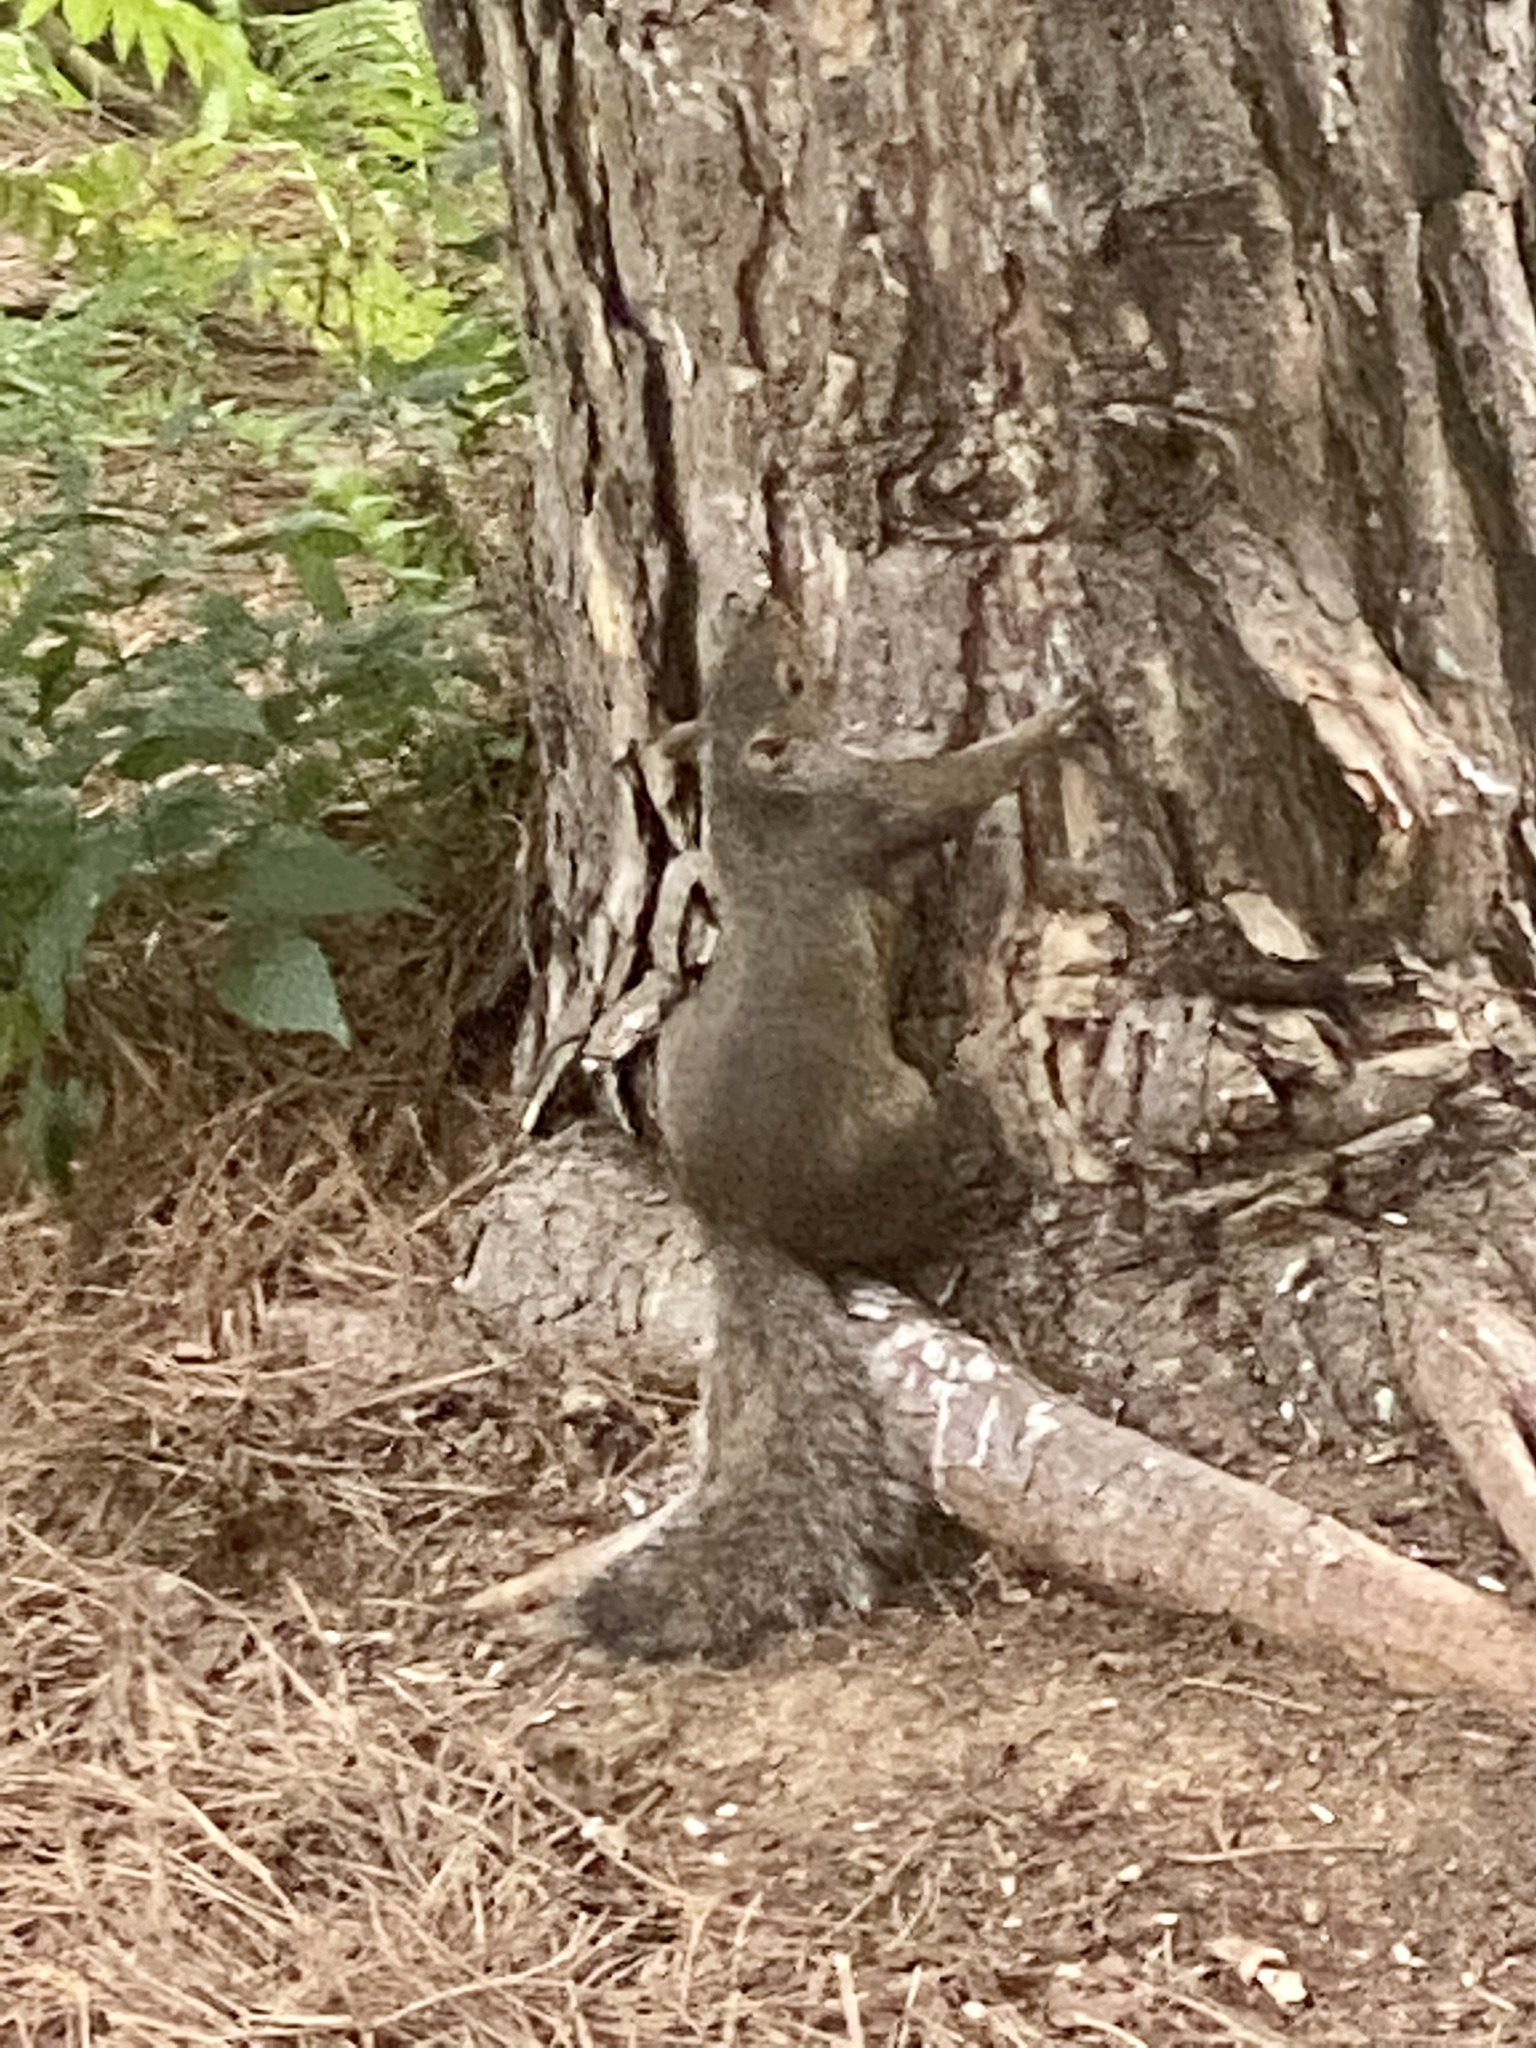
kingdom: Animalia
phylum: Chordata
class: Mammalia
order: Rodentia
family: Sciuridae
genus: Sciurus
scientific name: Sciurus carolinensis
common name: Eastern gray squirrel
